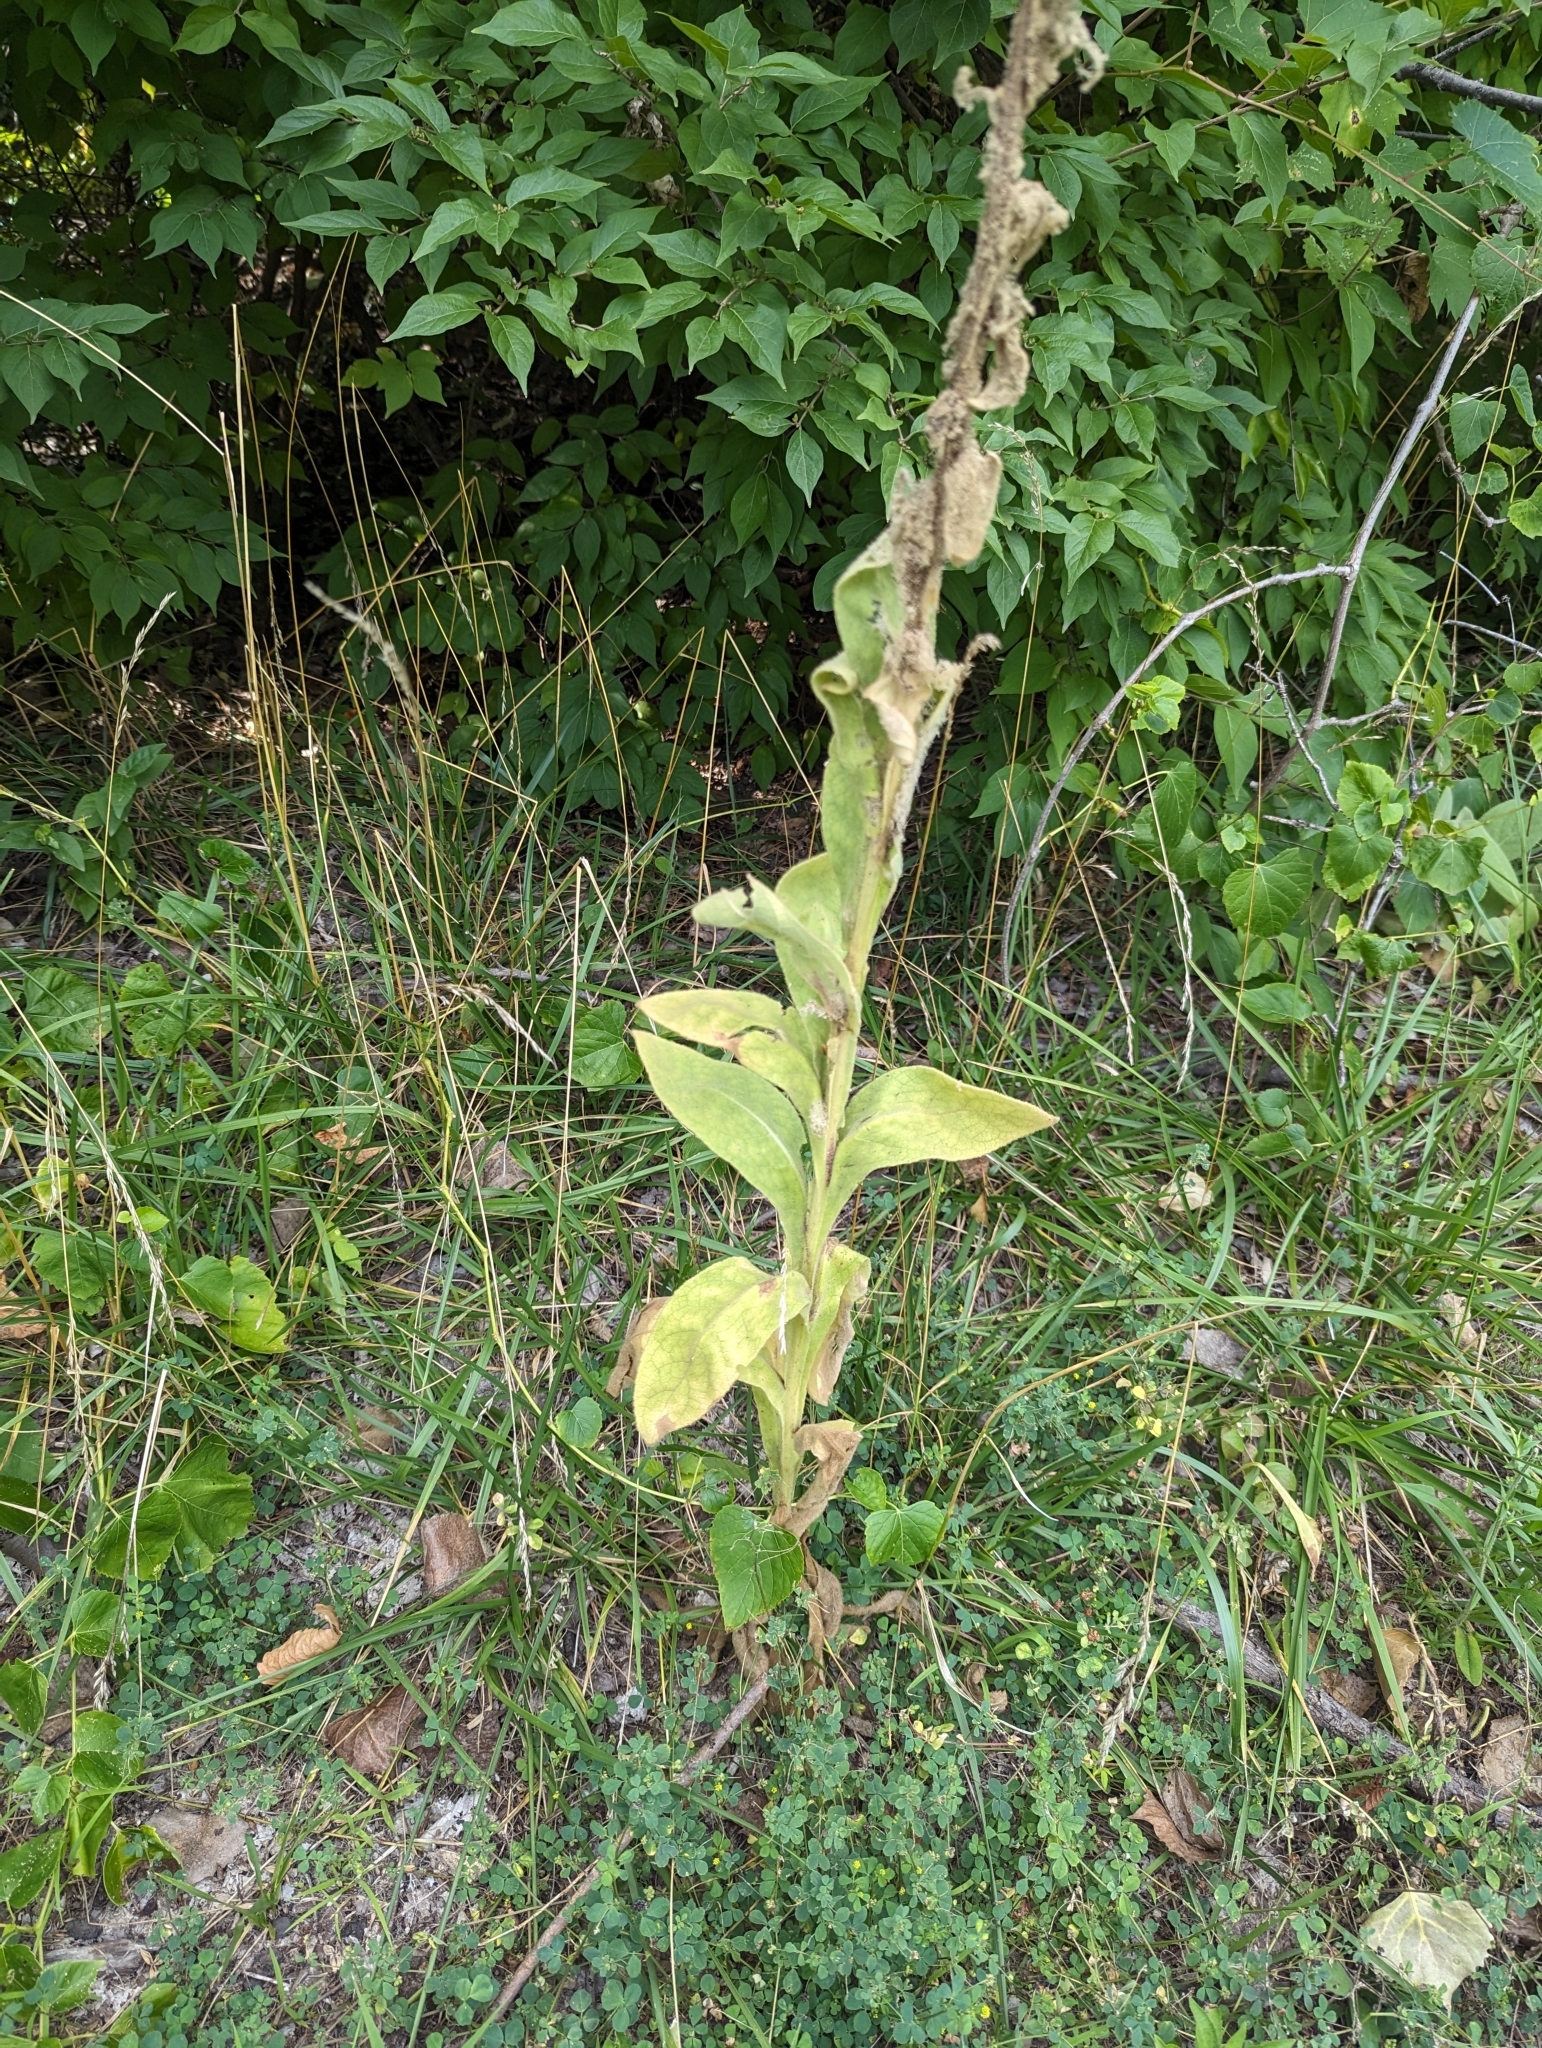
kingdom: Plantae
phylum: Tracheophyta
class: Magnoliopsida
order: Lamiales
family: Scrophulariaceae
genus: Verbascum
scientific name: Verbascum thapsus
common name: Common mullein
